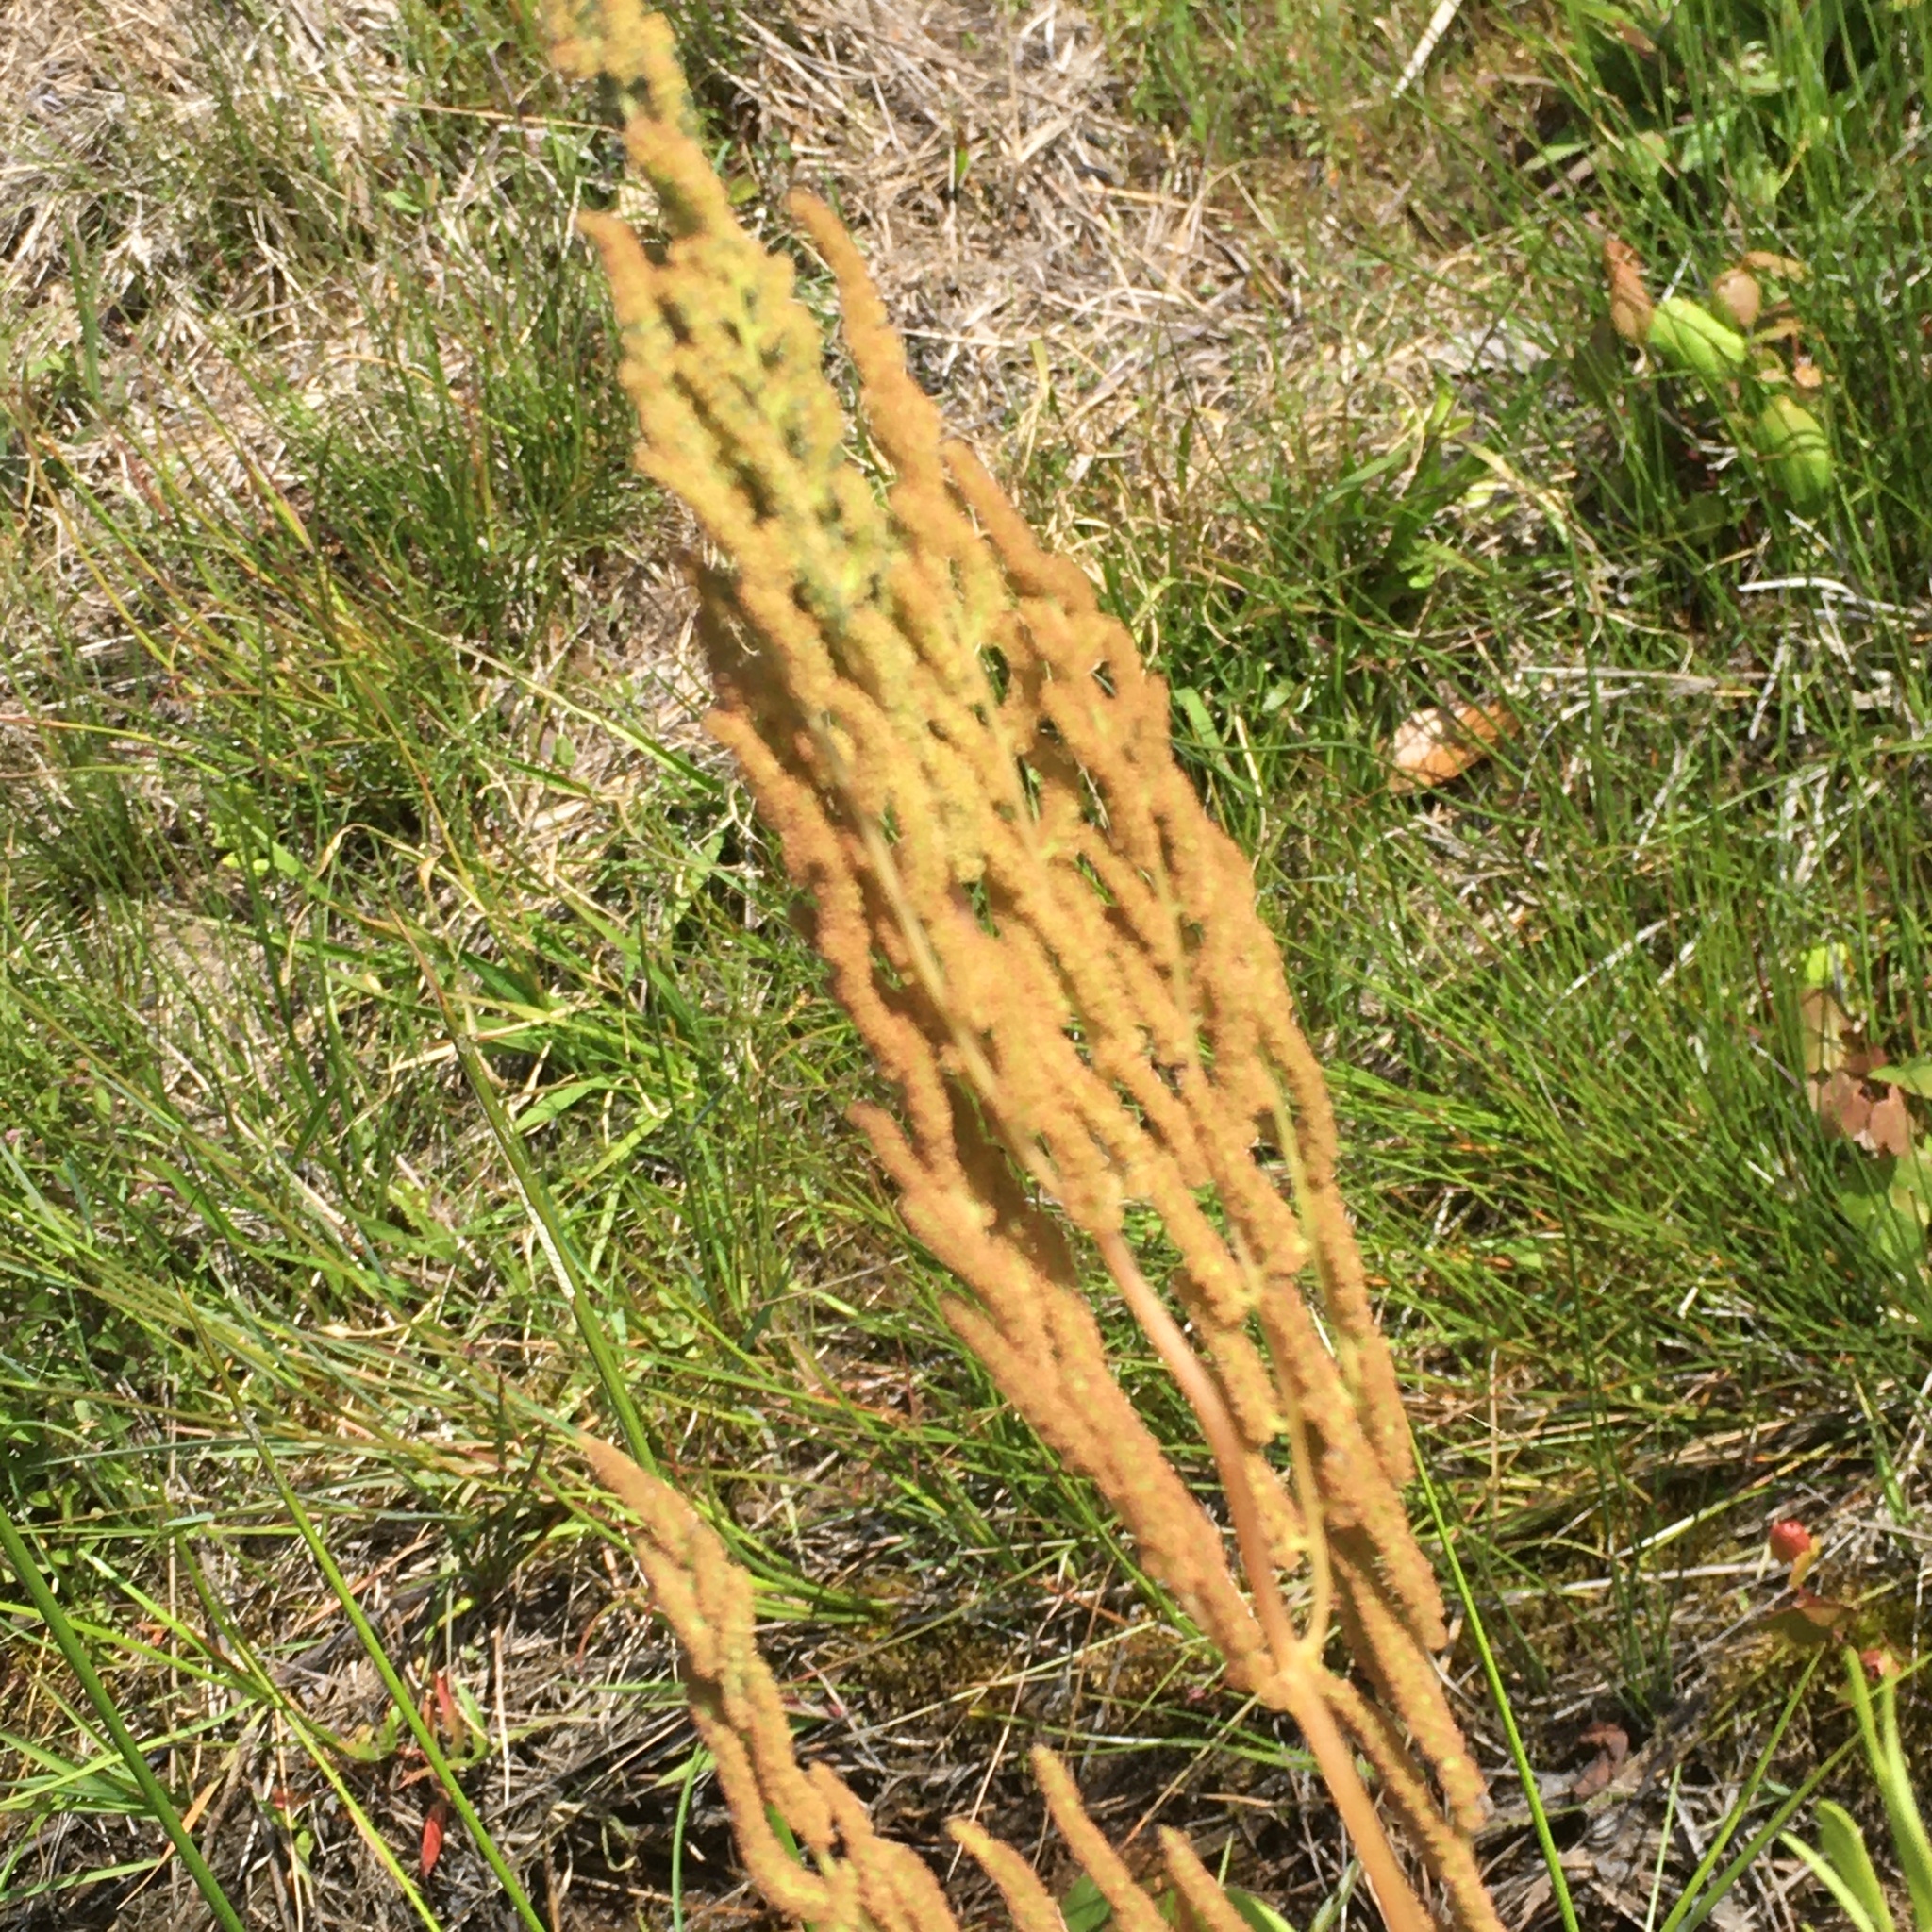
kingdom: Plantae
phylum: Tracheophyta
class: Polypodiopsida
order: Osmundales
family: Osmundaceae
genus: Osmunda
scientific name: Osmunda spectabilis
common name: American royal fern
